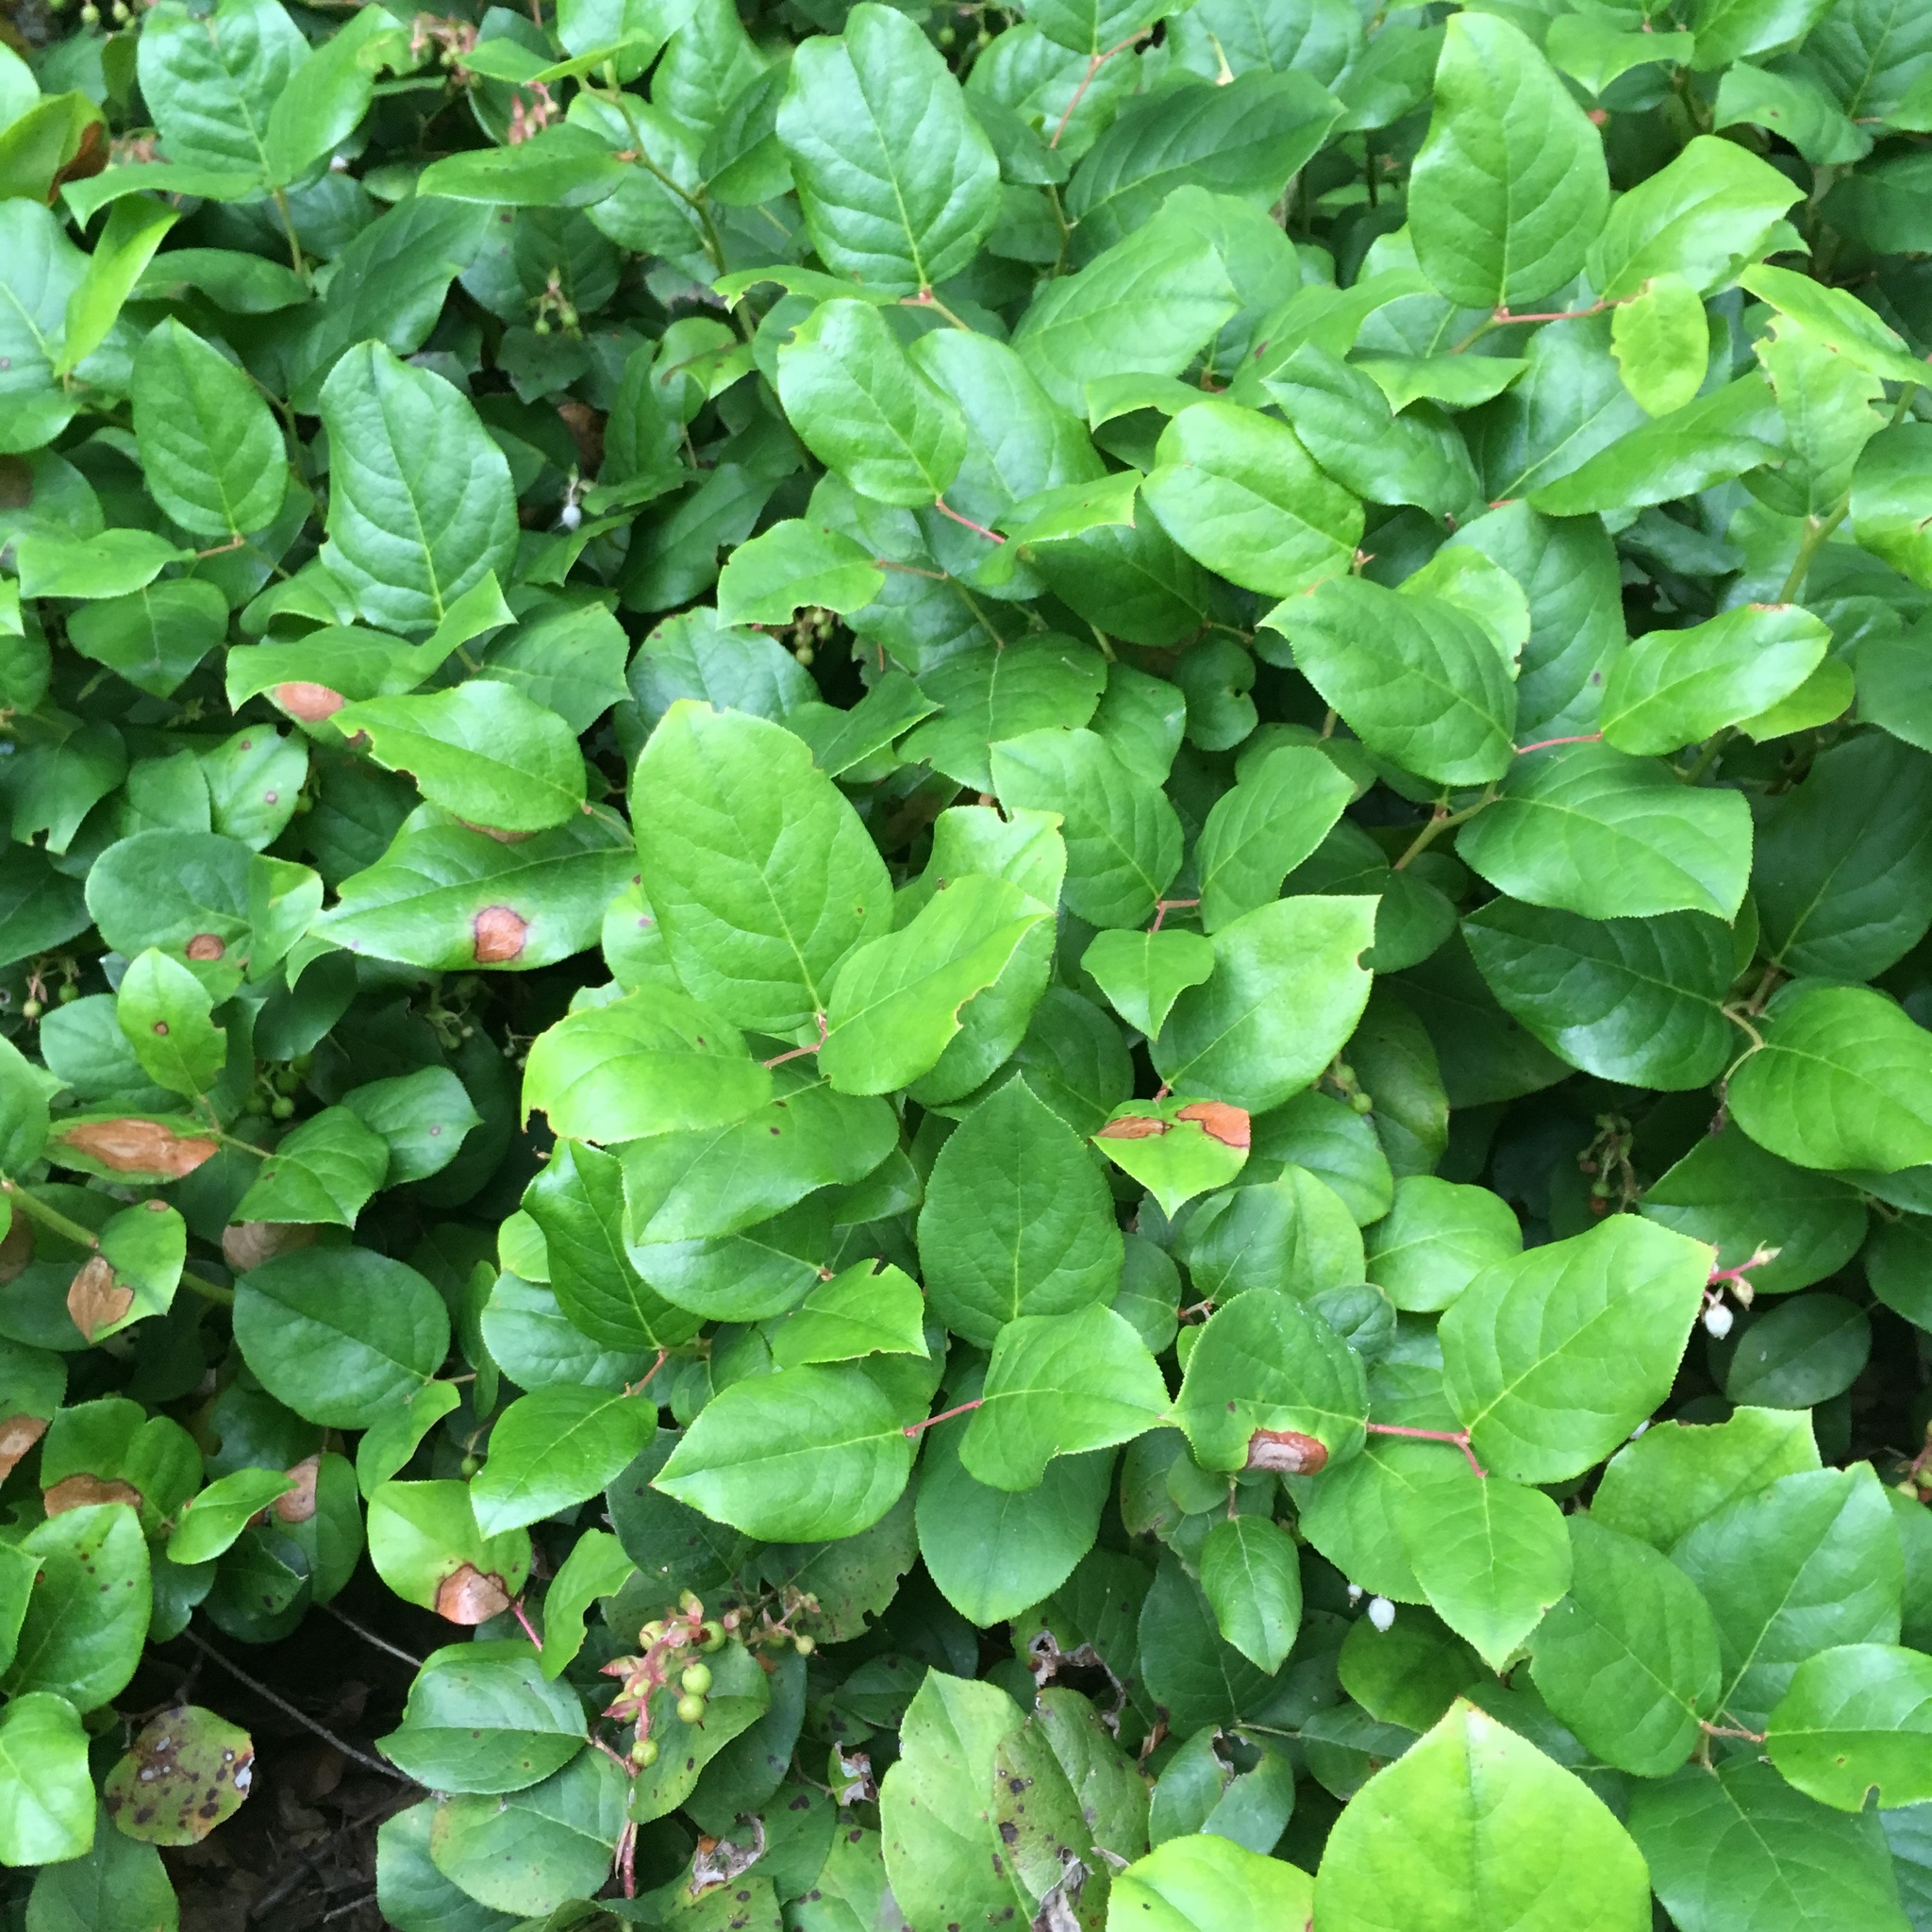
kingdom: Plantae
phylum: Tracheophyta
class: Magnoliopsida
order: Ericales
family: Ericaceae
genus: Gaultheria
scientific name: Gaultheria shallon
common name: Shallon
